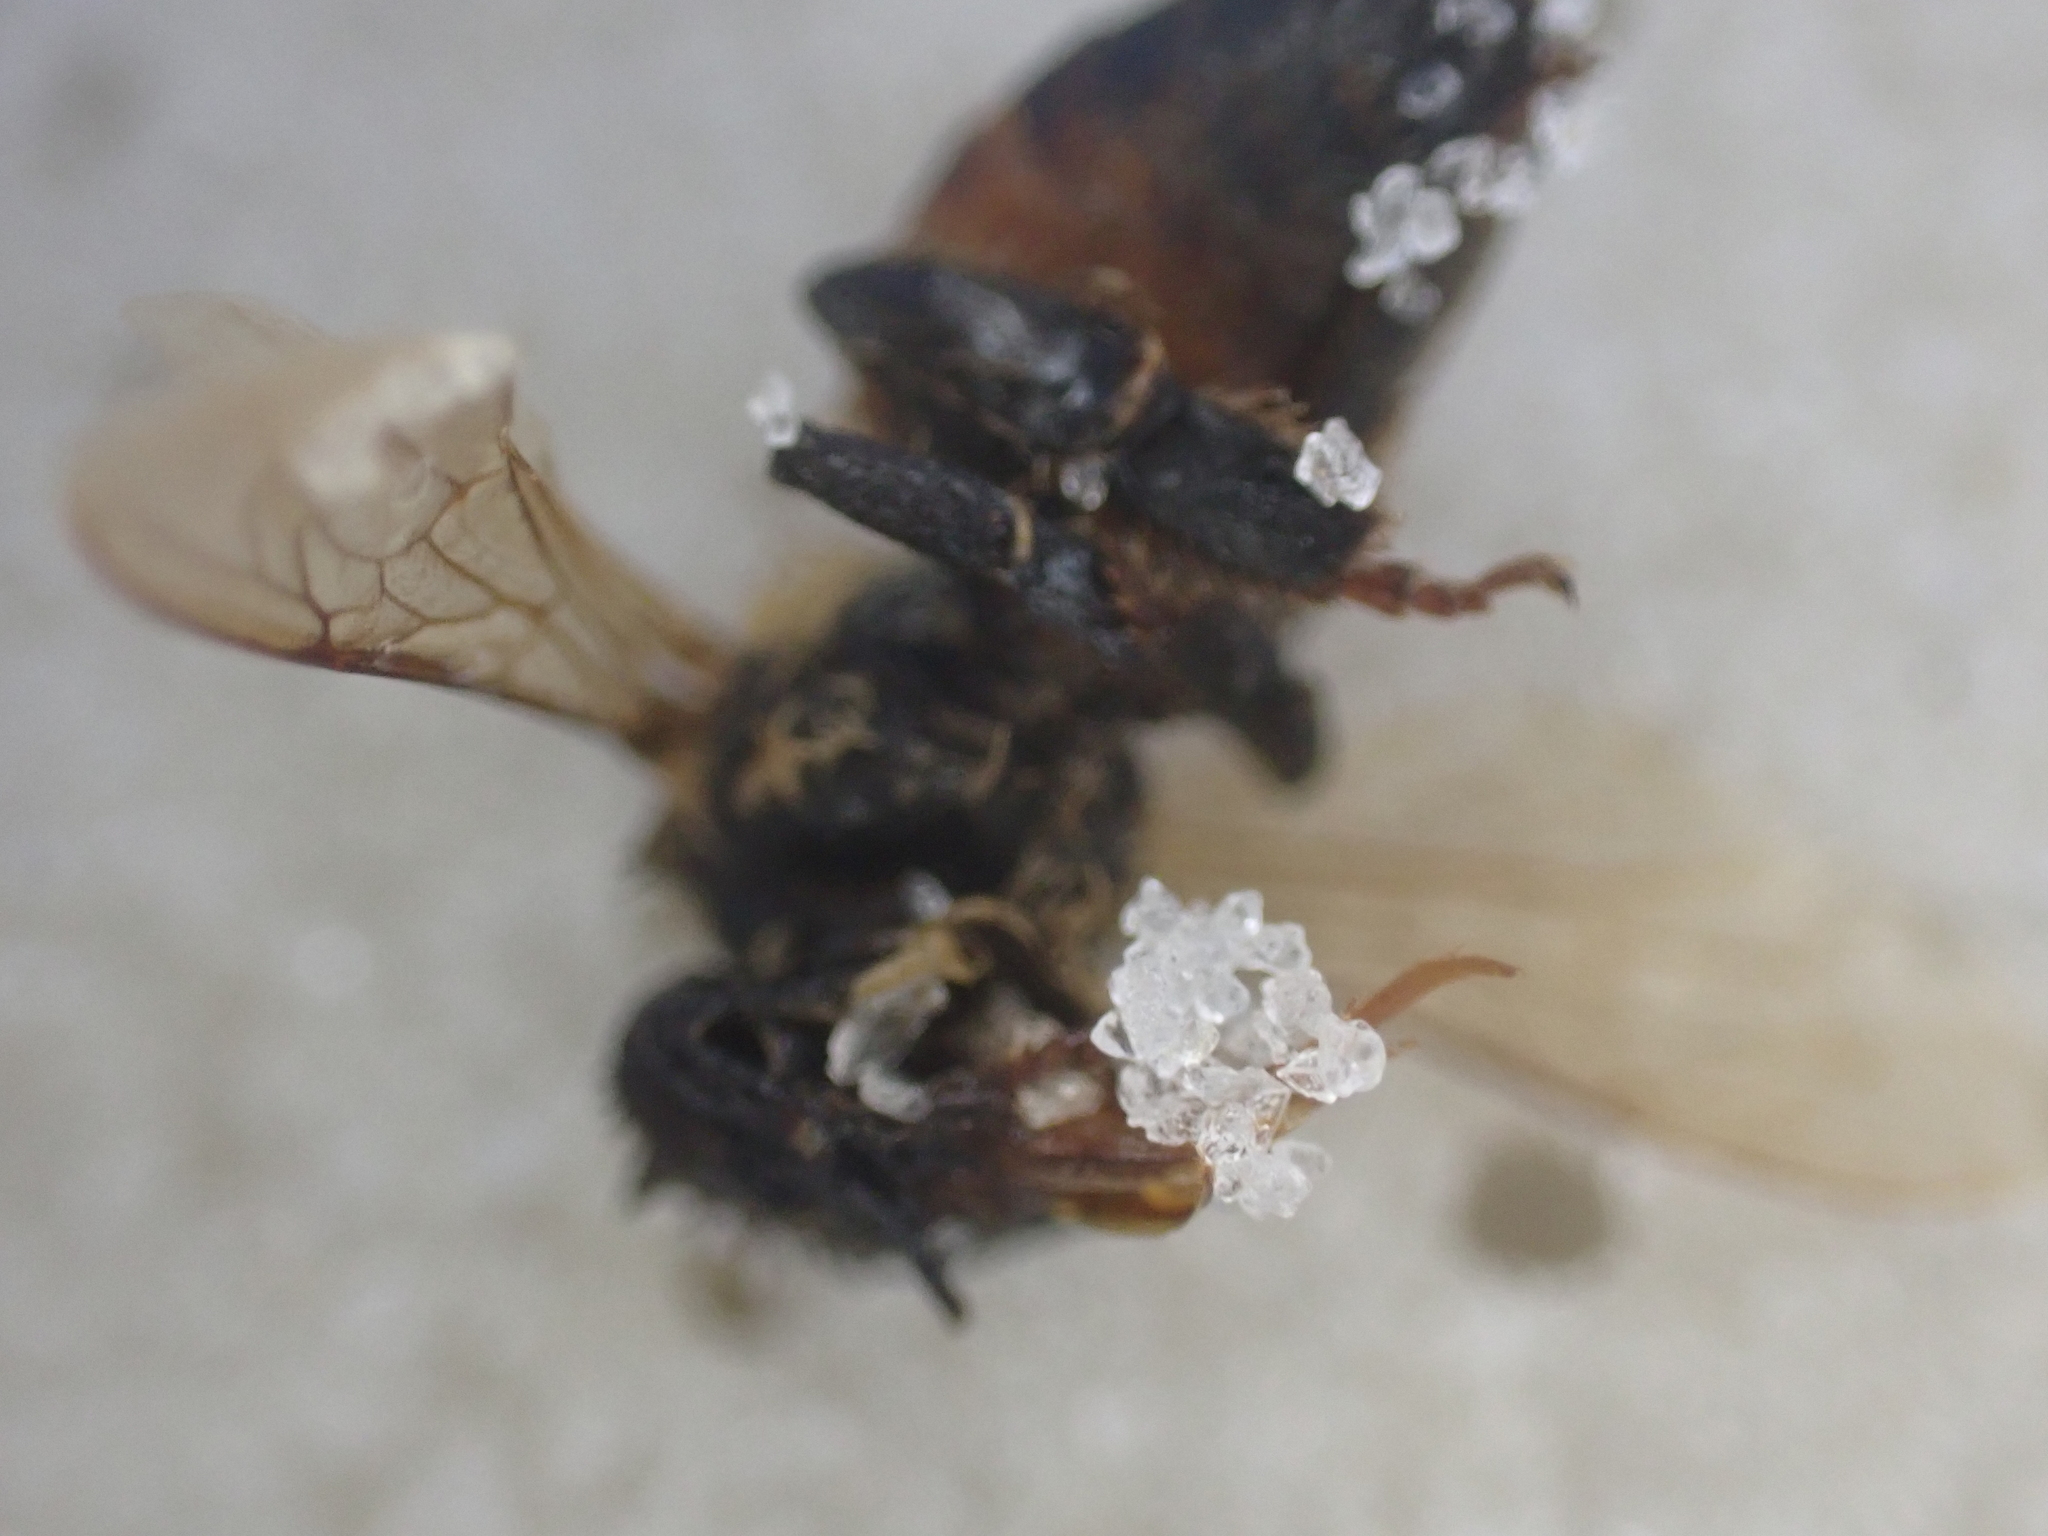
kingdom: Animalia
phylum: Arthropoda
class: Insecta
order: Hymenoptera
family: Apidae
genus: Apis
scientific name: Apis mellifera
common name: Honey bee
